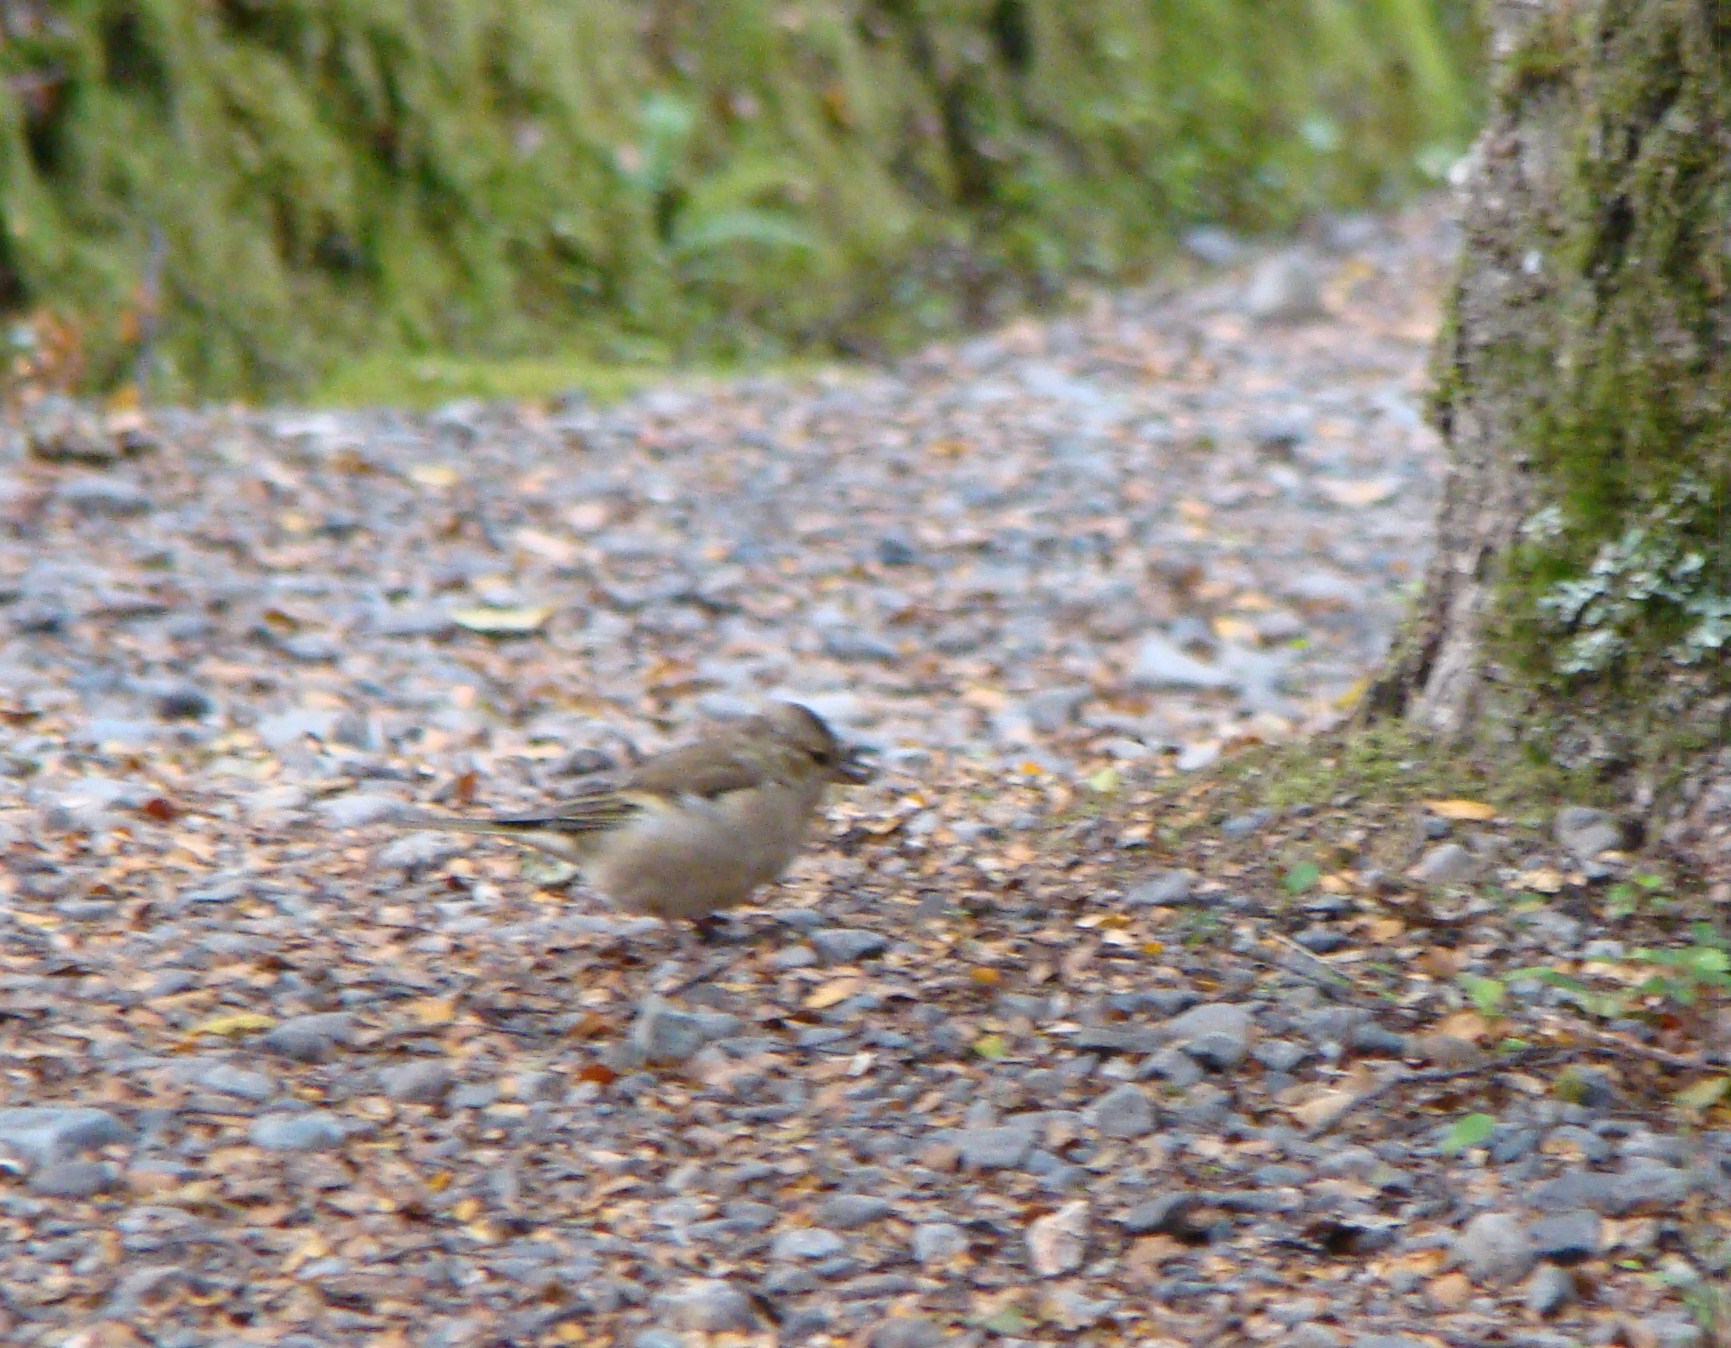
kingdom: Animalia
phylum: Chordata
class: Aves
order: Passeriformes
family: Fringillidae
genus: Fringilla
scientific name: Fringilla coelebs
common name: Common chaffinch
